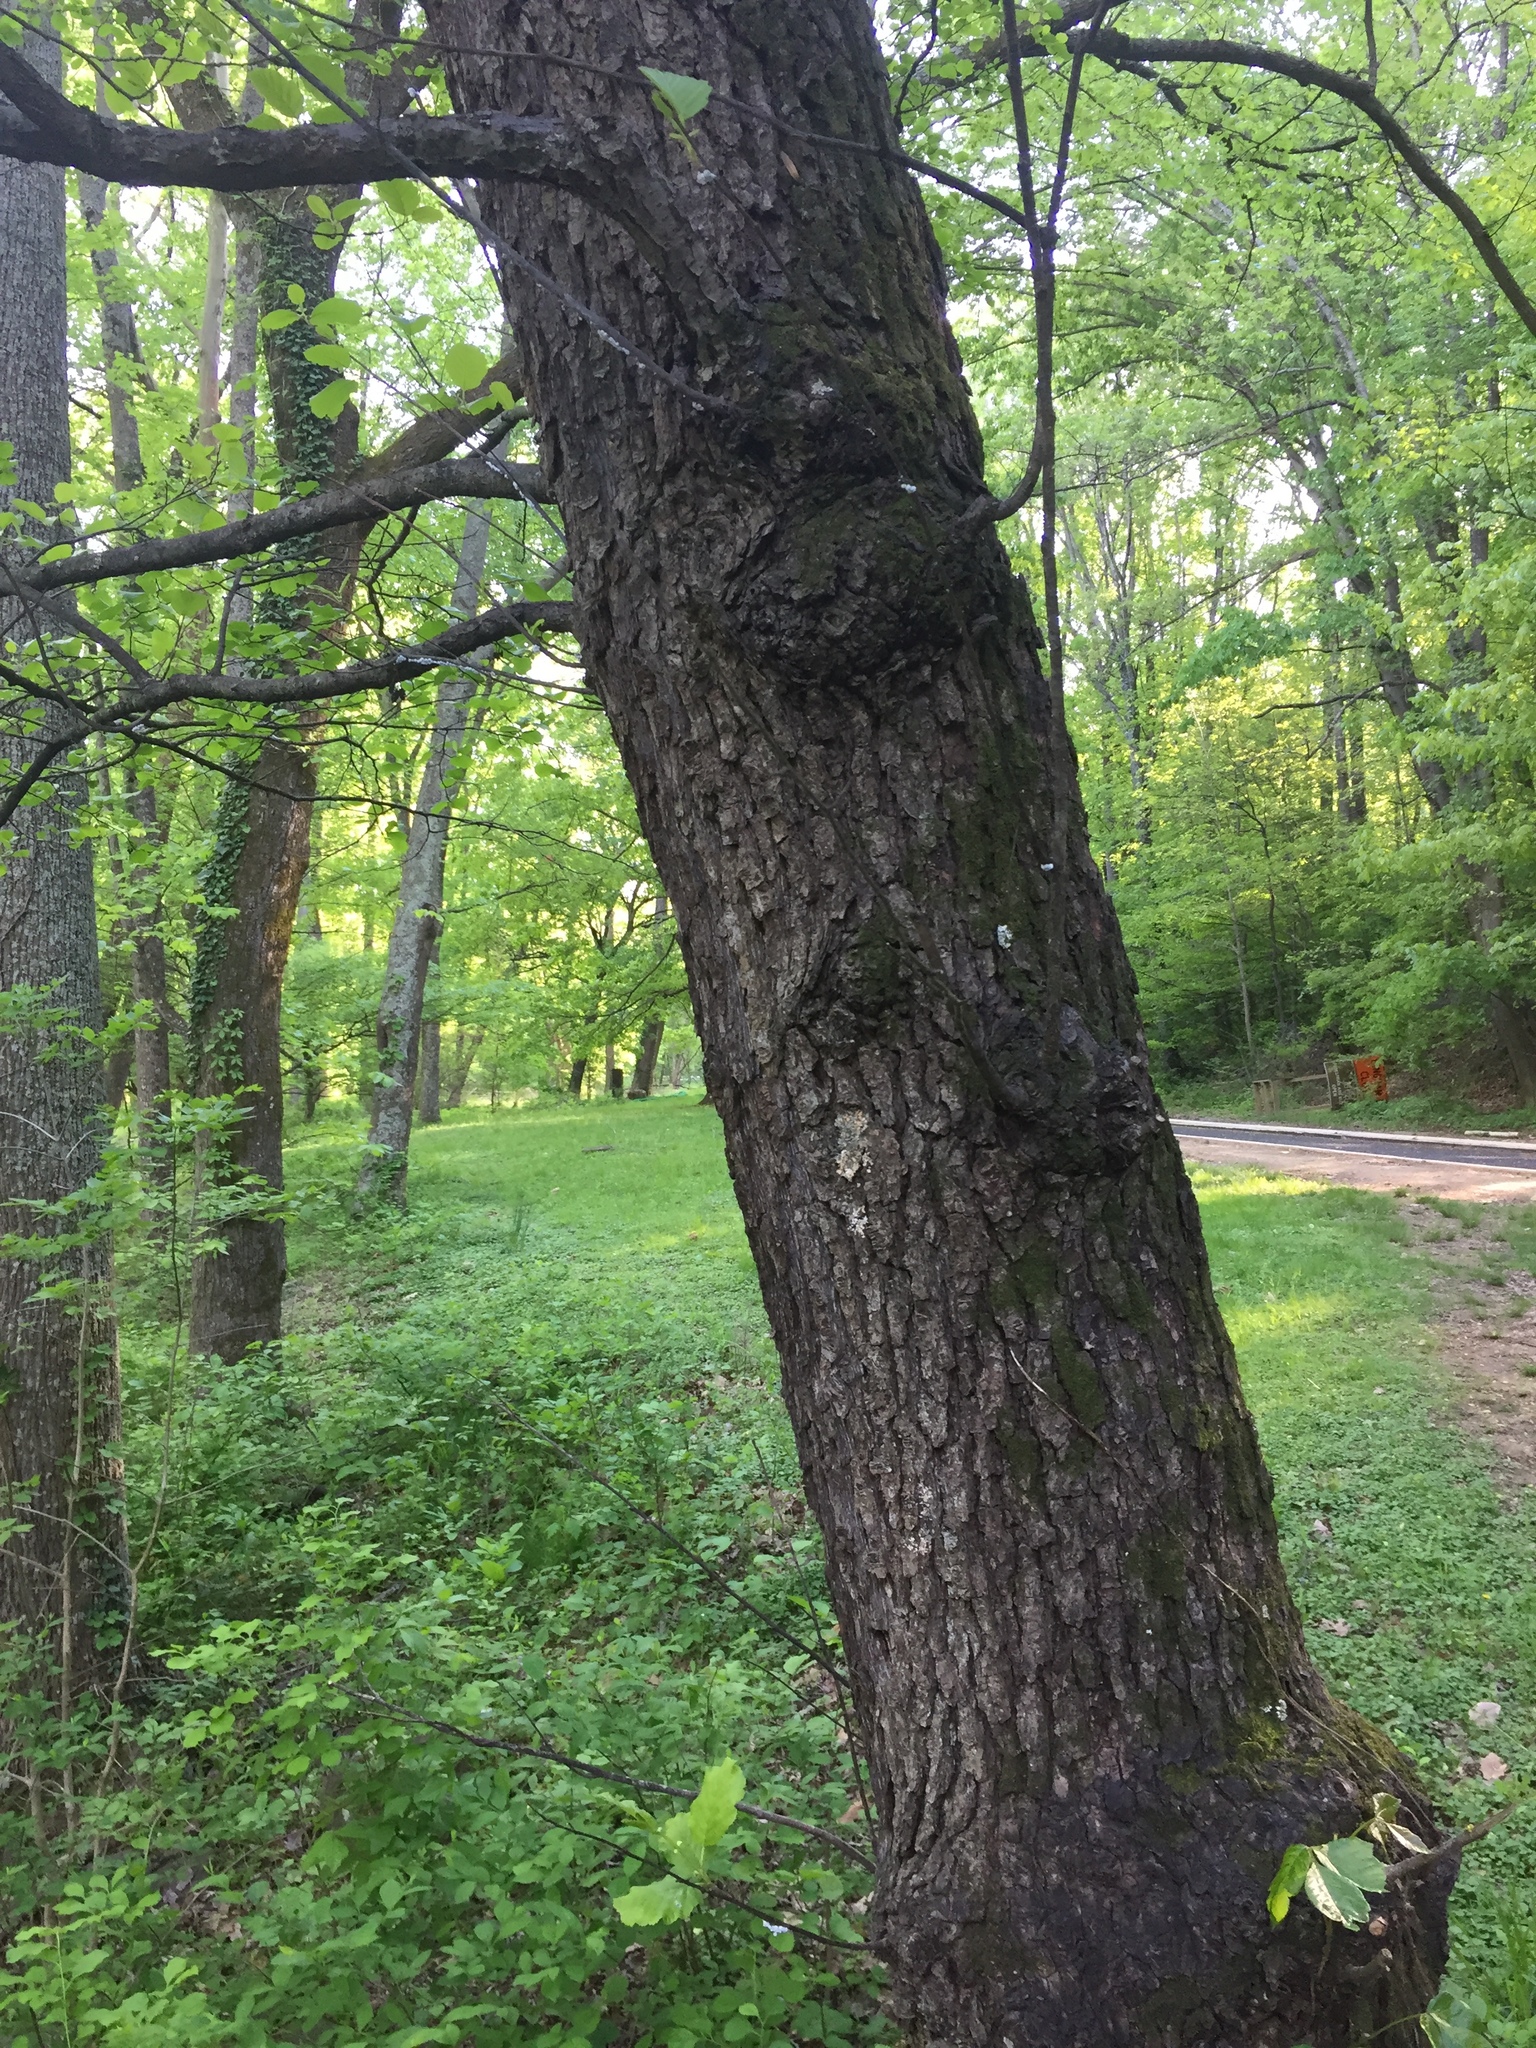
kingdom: Plantae
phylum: Tracheophyta
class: Magnoliopsida
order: Fagales
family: Betulaceae
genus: Alnus
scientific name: Alnus glutinosa
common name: Black alder
